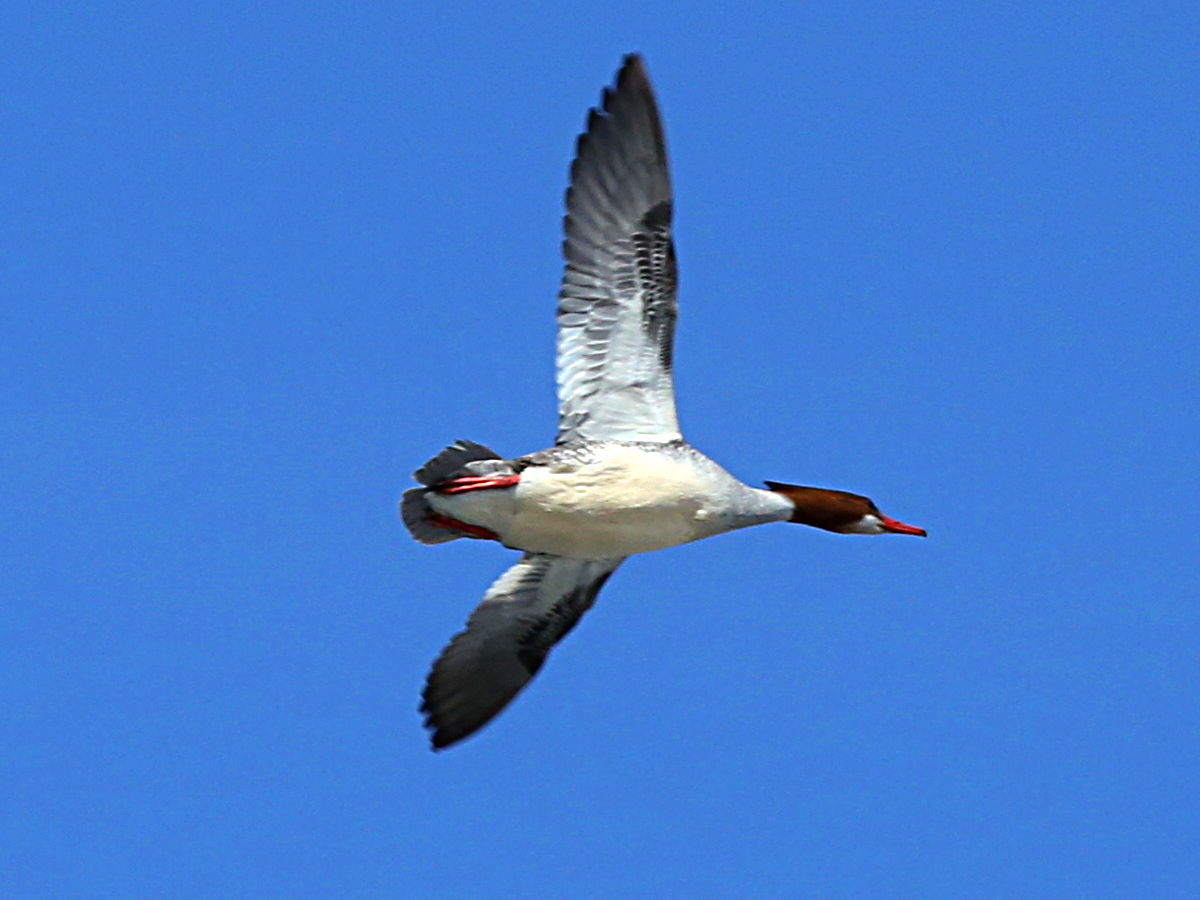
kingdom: Animalia
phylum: Chordata
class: Aves
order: Anseriformes
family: Anatidae
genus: Mergus
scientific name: Mergus merganser
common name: Common merganser
